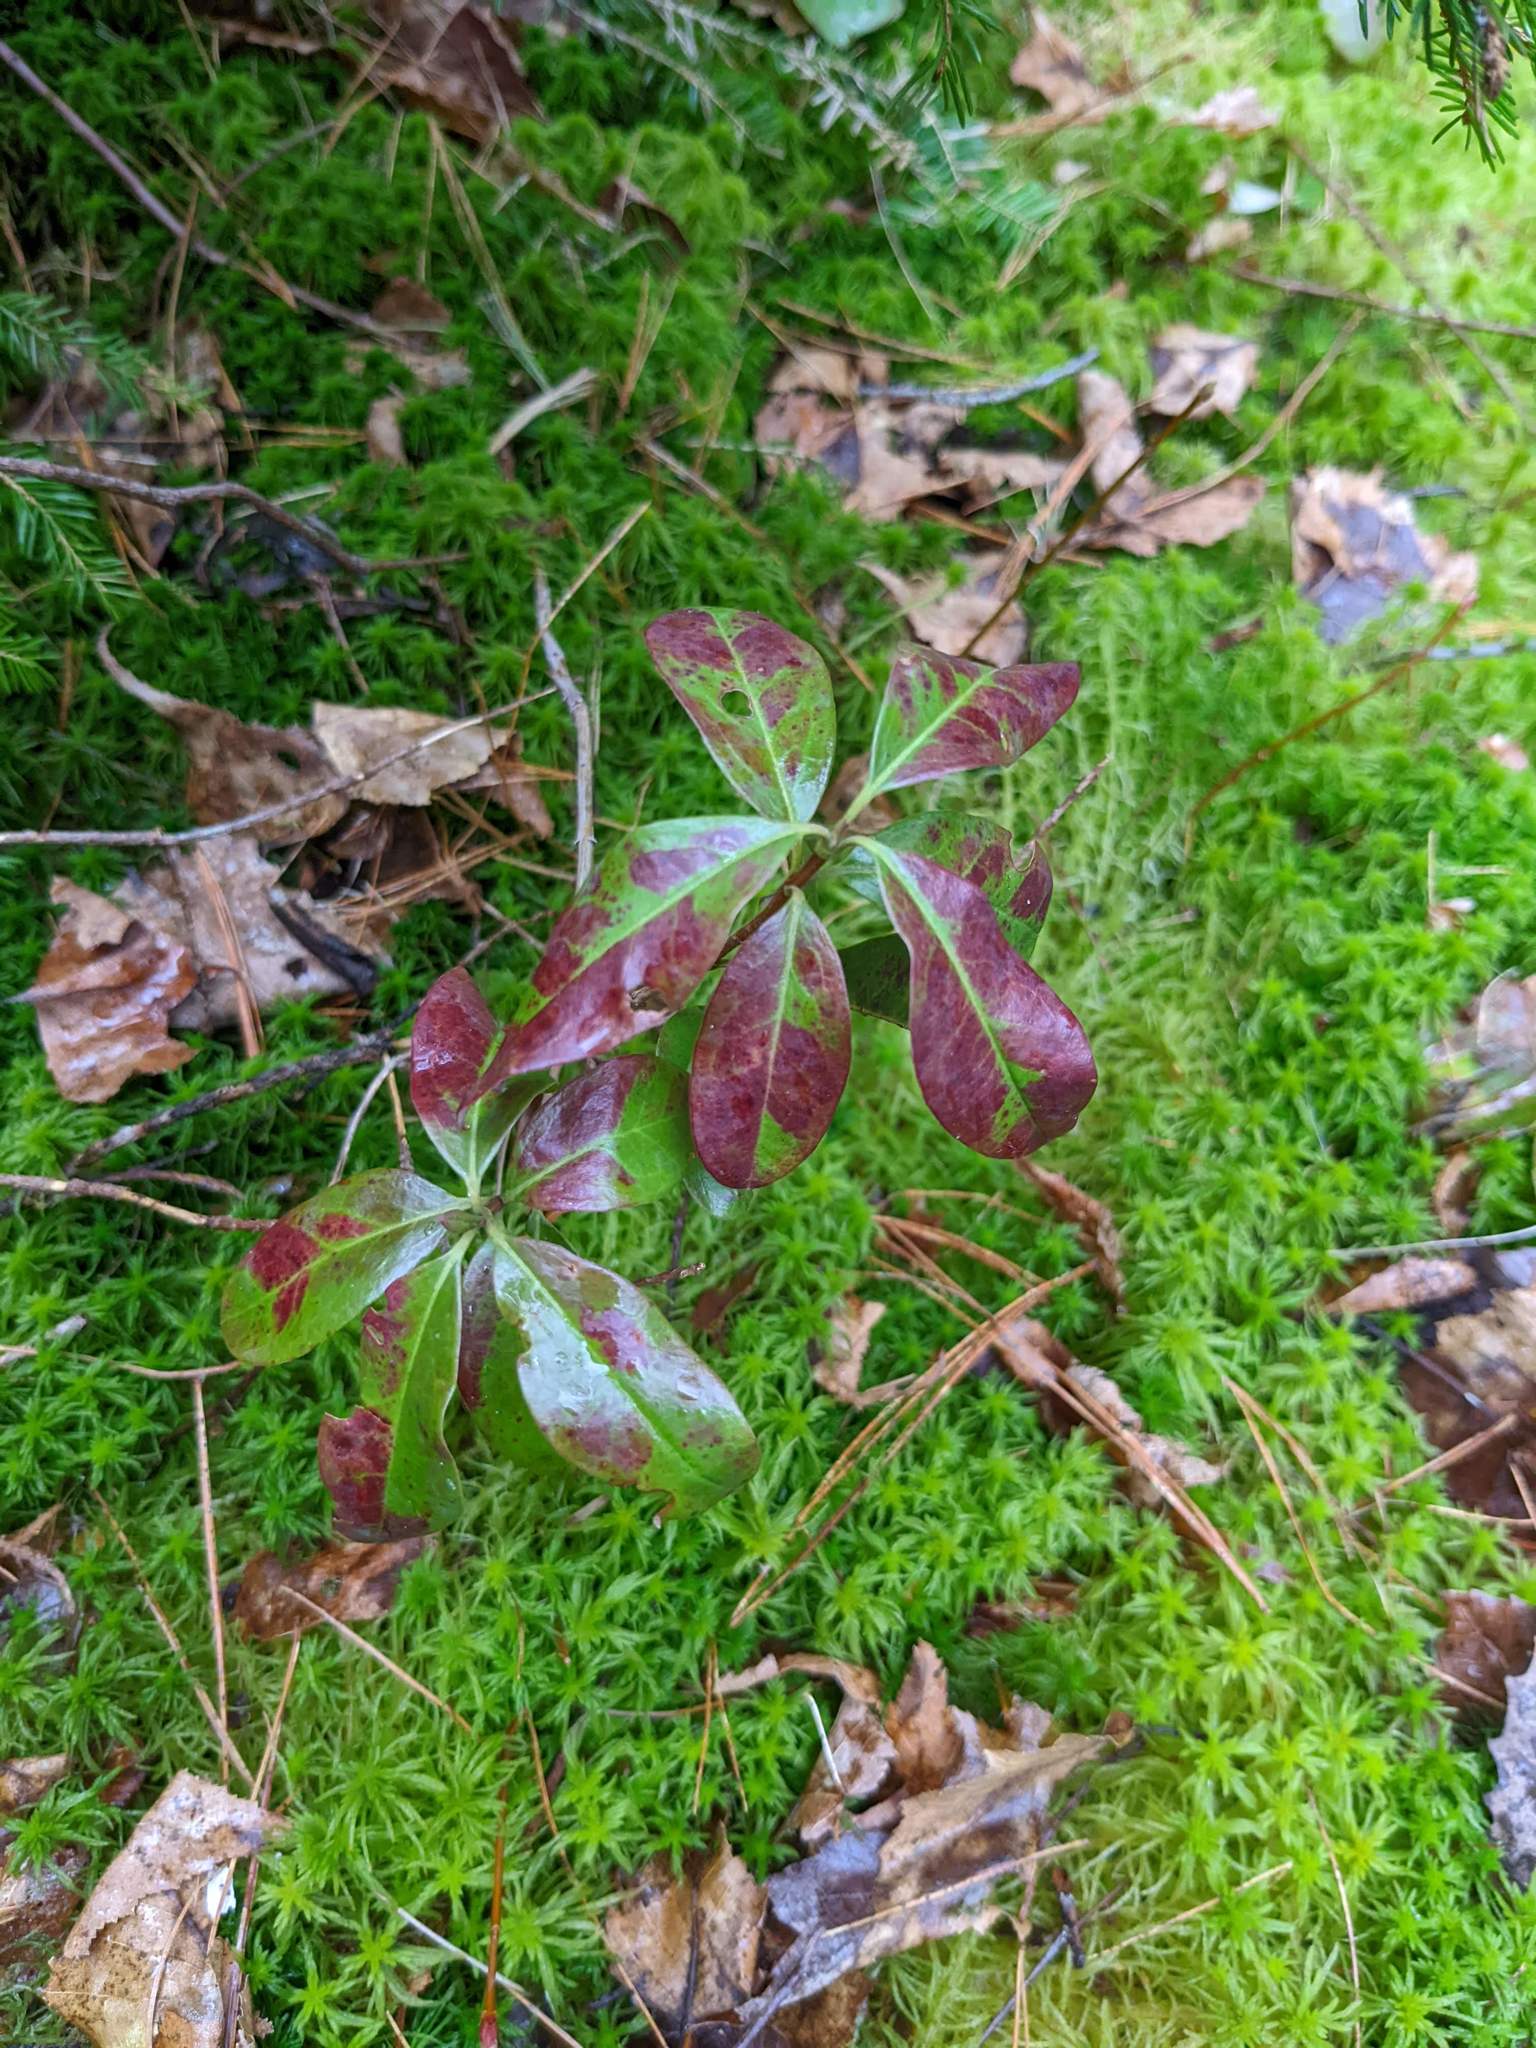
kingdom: Plantae
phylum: Tracheophyta
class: Magnoliopsida
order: Ericales
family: Ericaceae
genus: Kalmia
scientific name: Kalmia angustifolia
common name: Sheep-laurel
